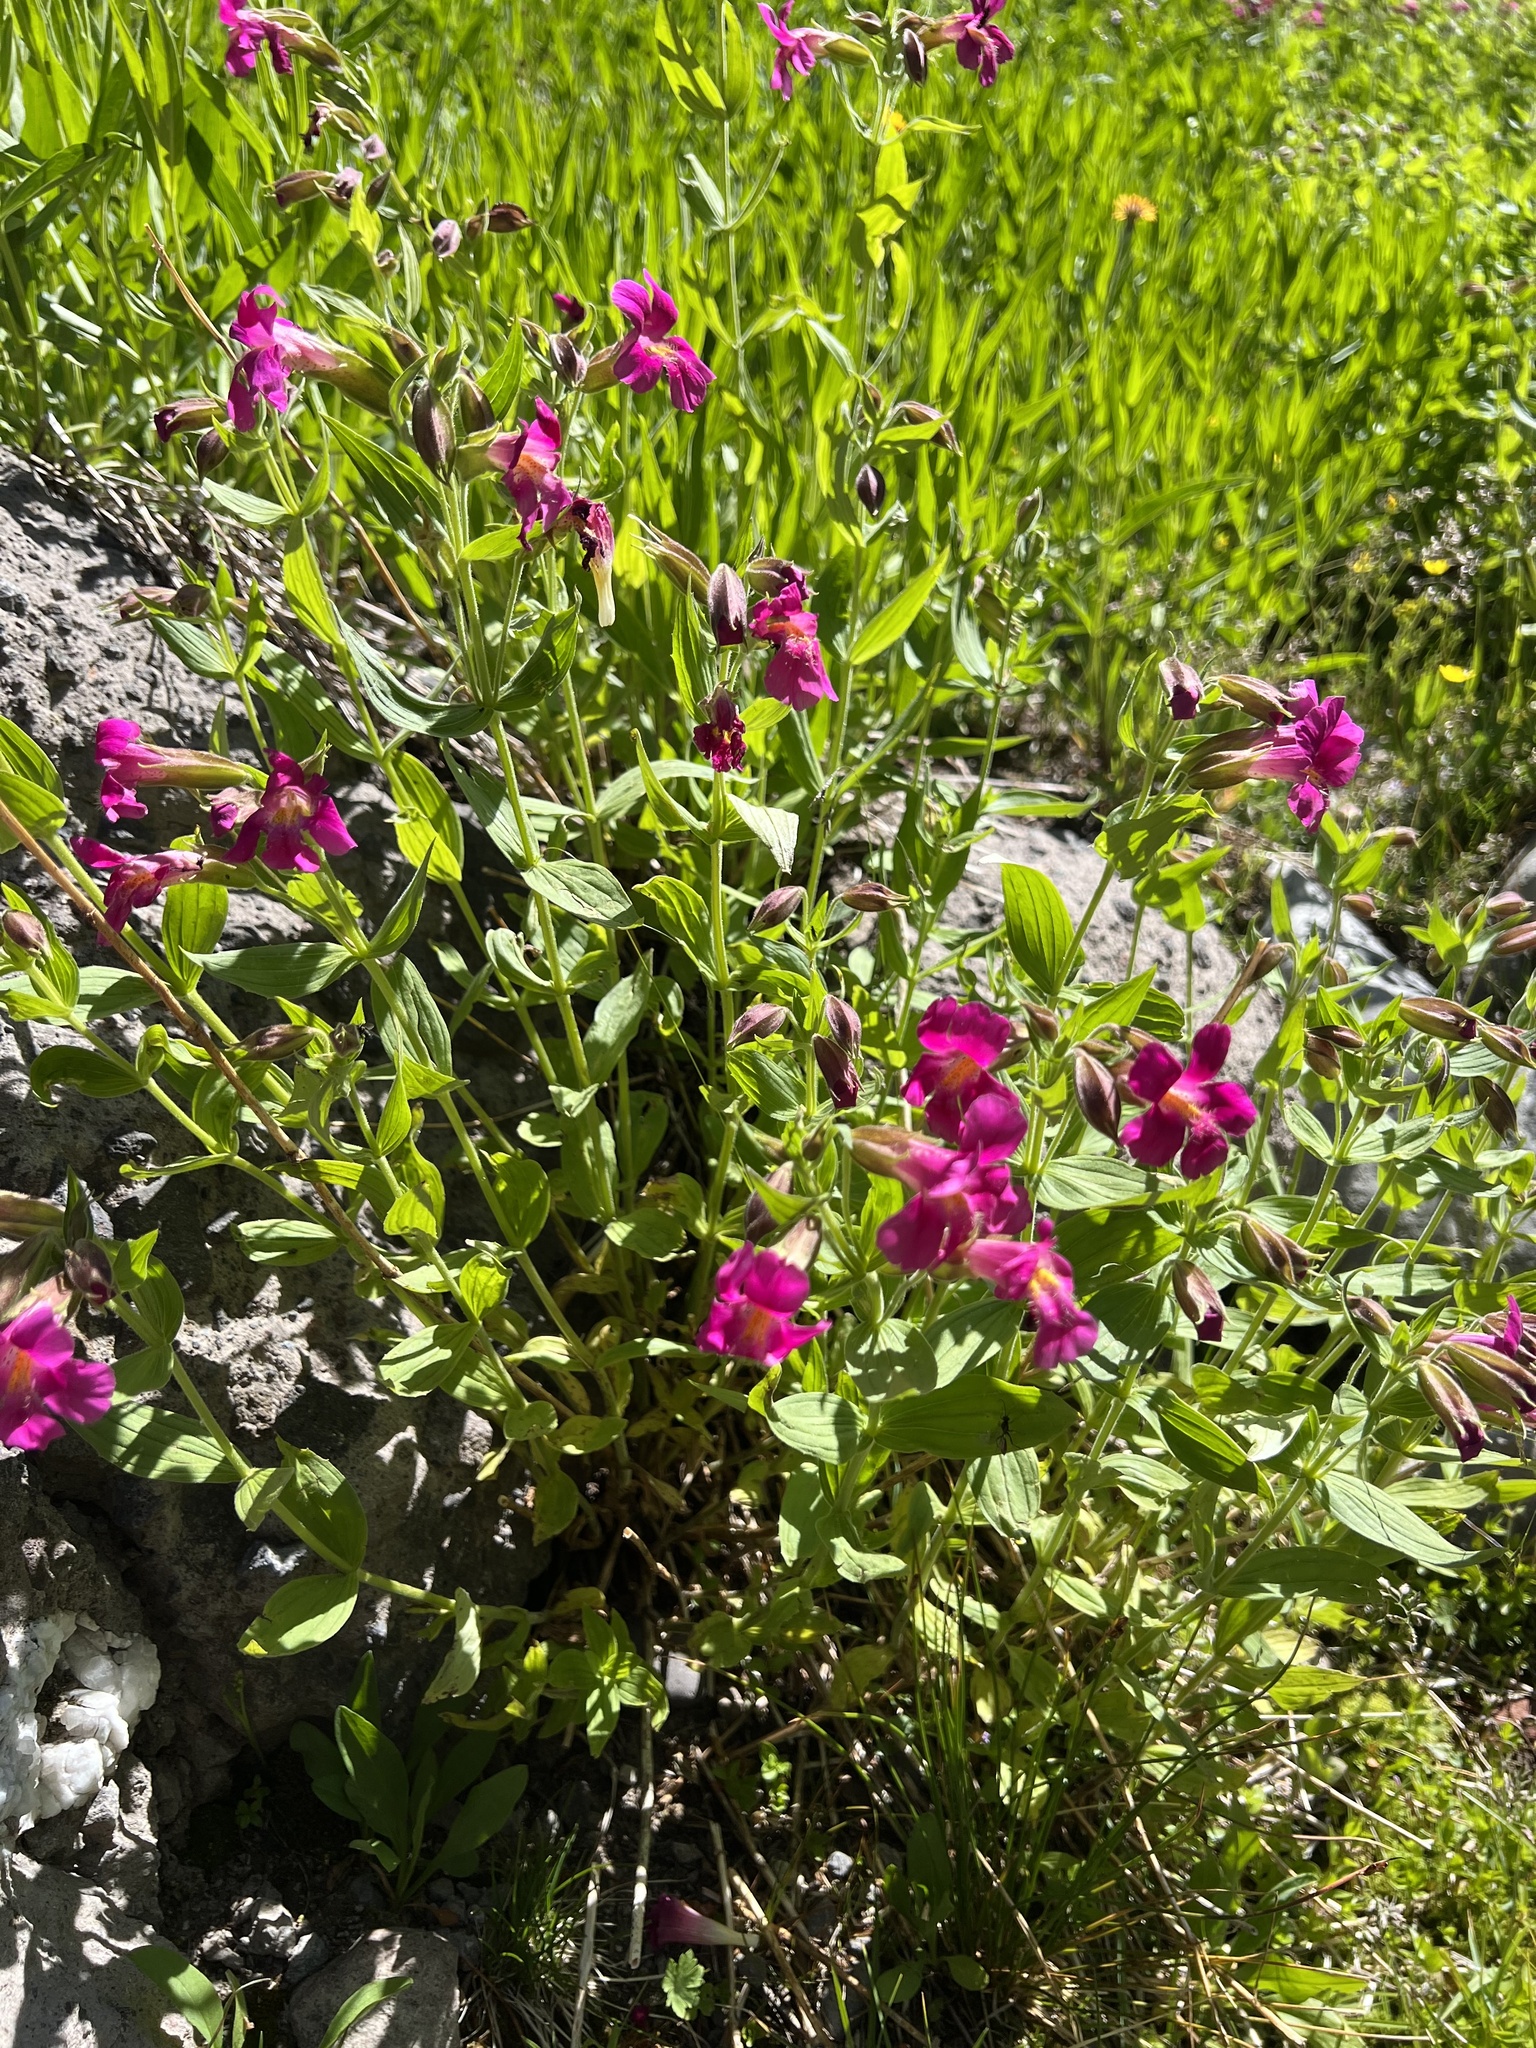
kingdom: Plantae
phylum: Tracheophyta
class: Magnoliopsida
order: Lamiales
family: Phrymaceae
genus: Erythranthe
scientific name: Erythranthe lewisii
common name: Lewis's monkey-flower
